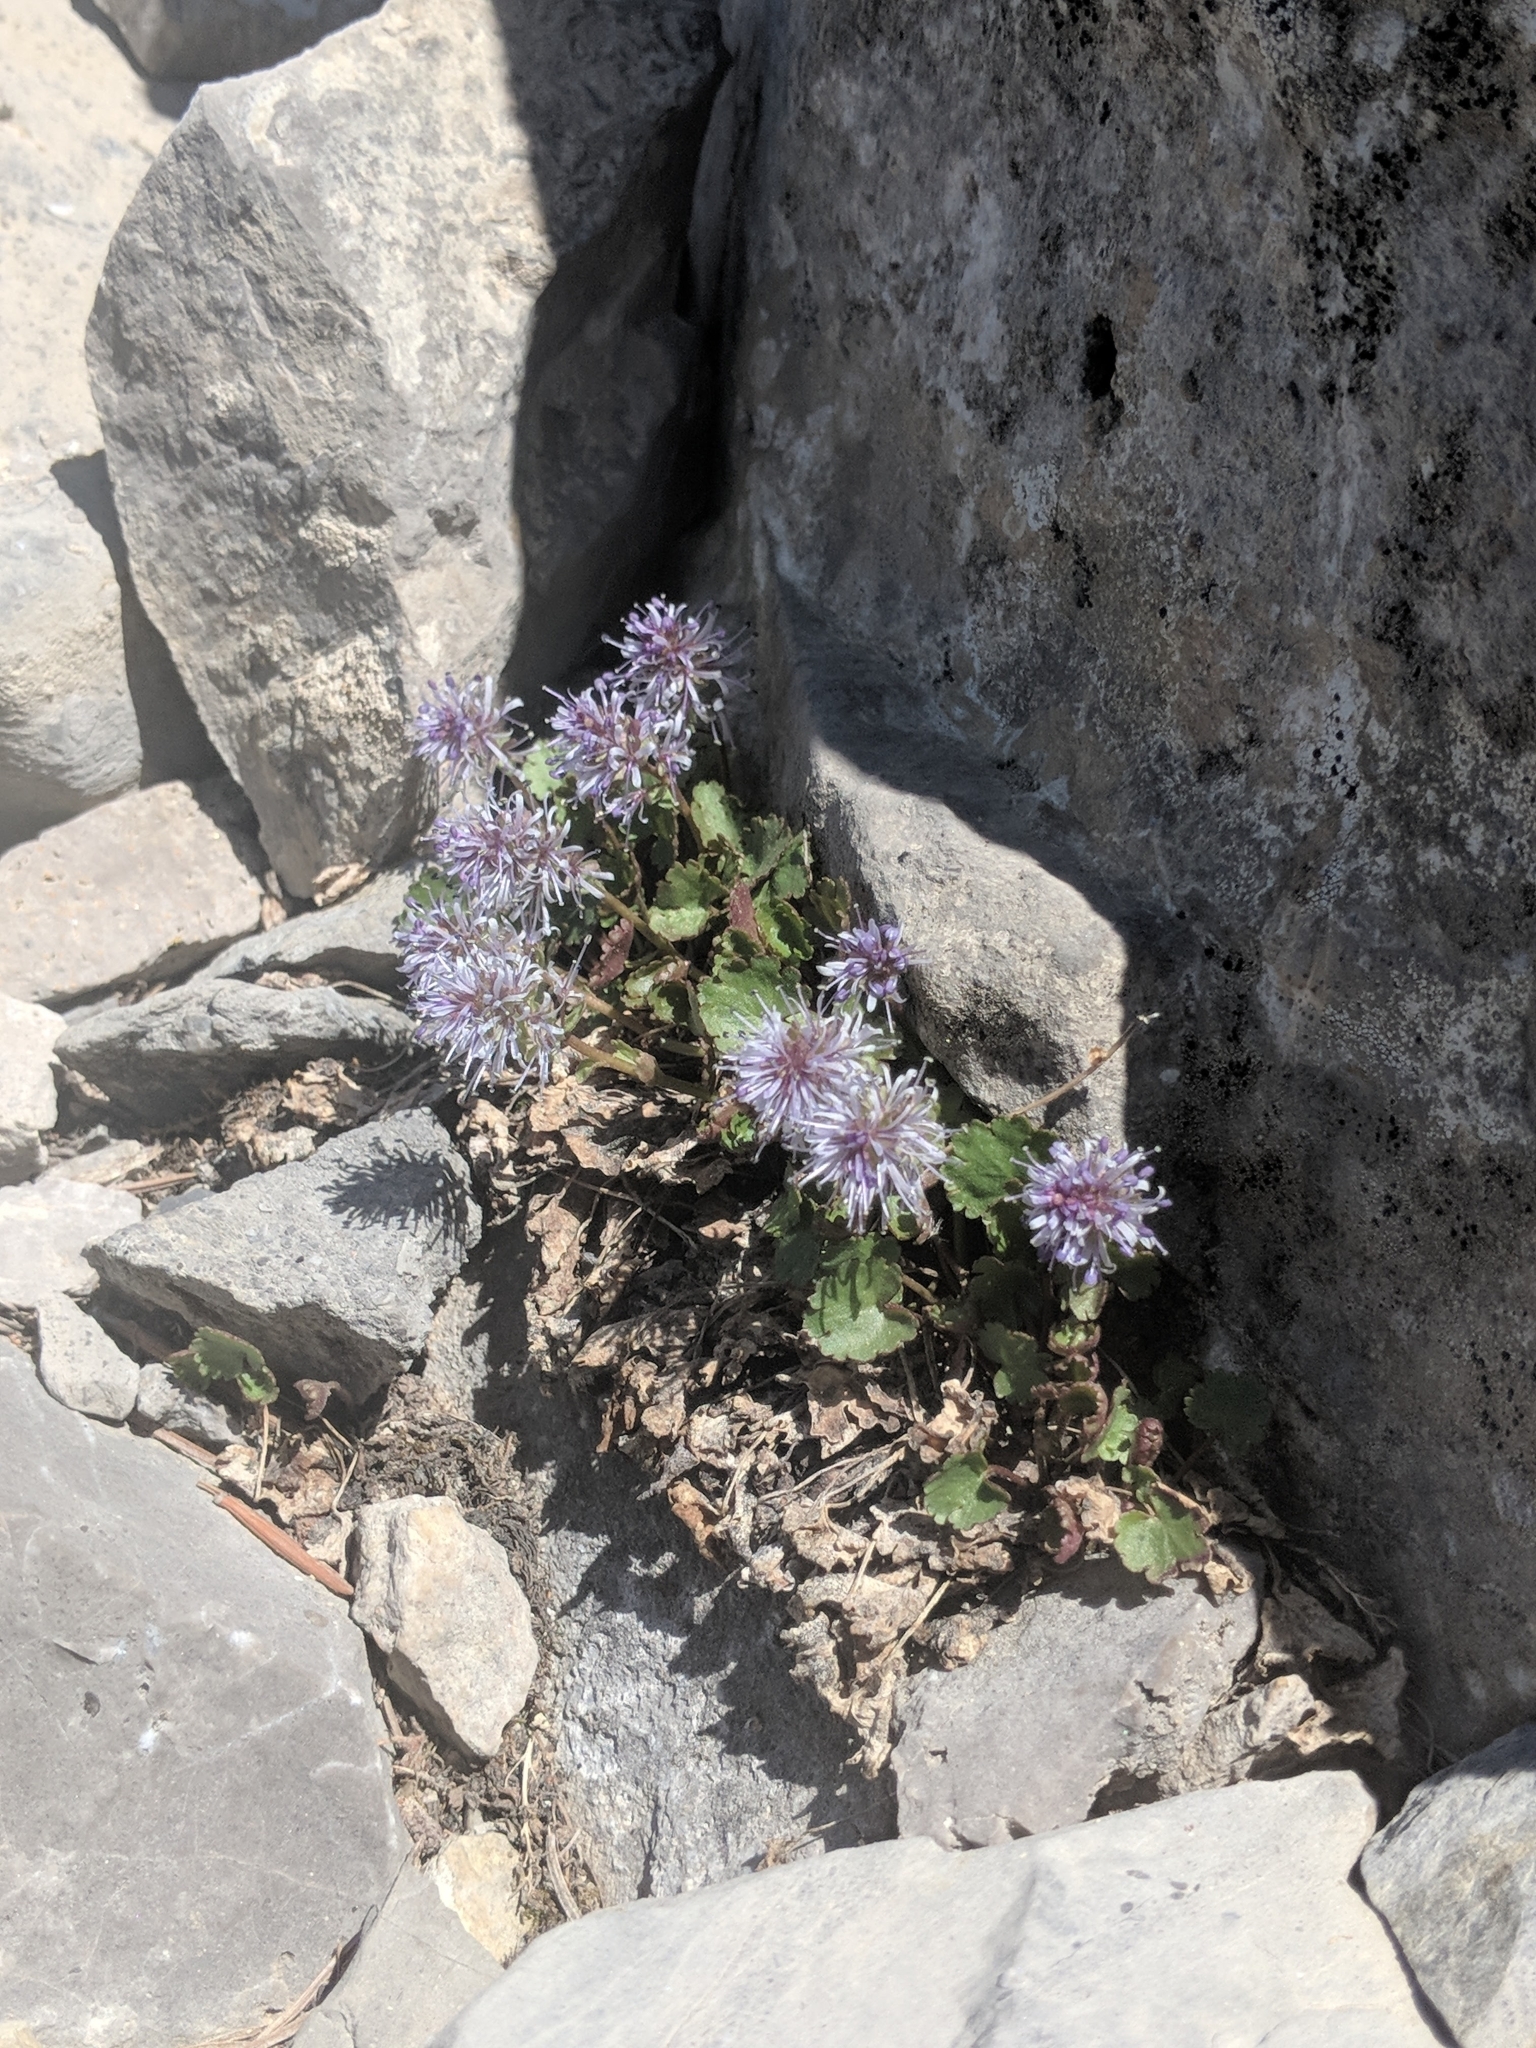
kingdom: Plantae
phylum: Tracheophyta
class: Magnoliopsida
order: Lamiales
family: Lamiaceae
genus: Monardella
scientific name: Monardella odoratissima
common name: Pacific monardella
